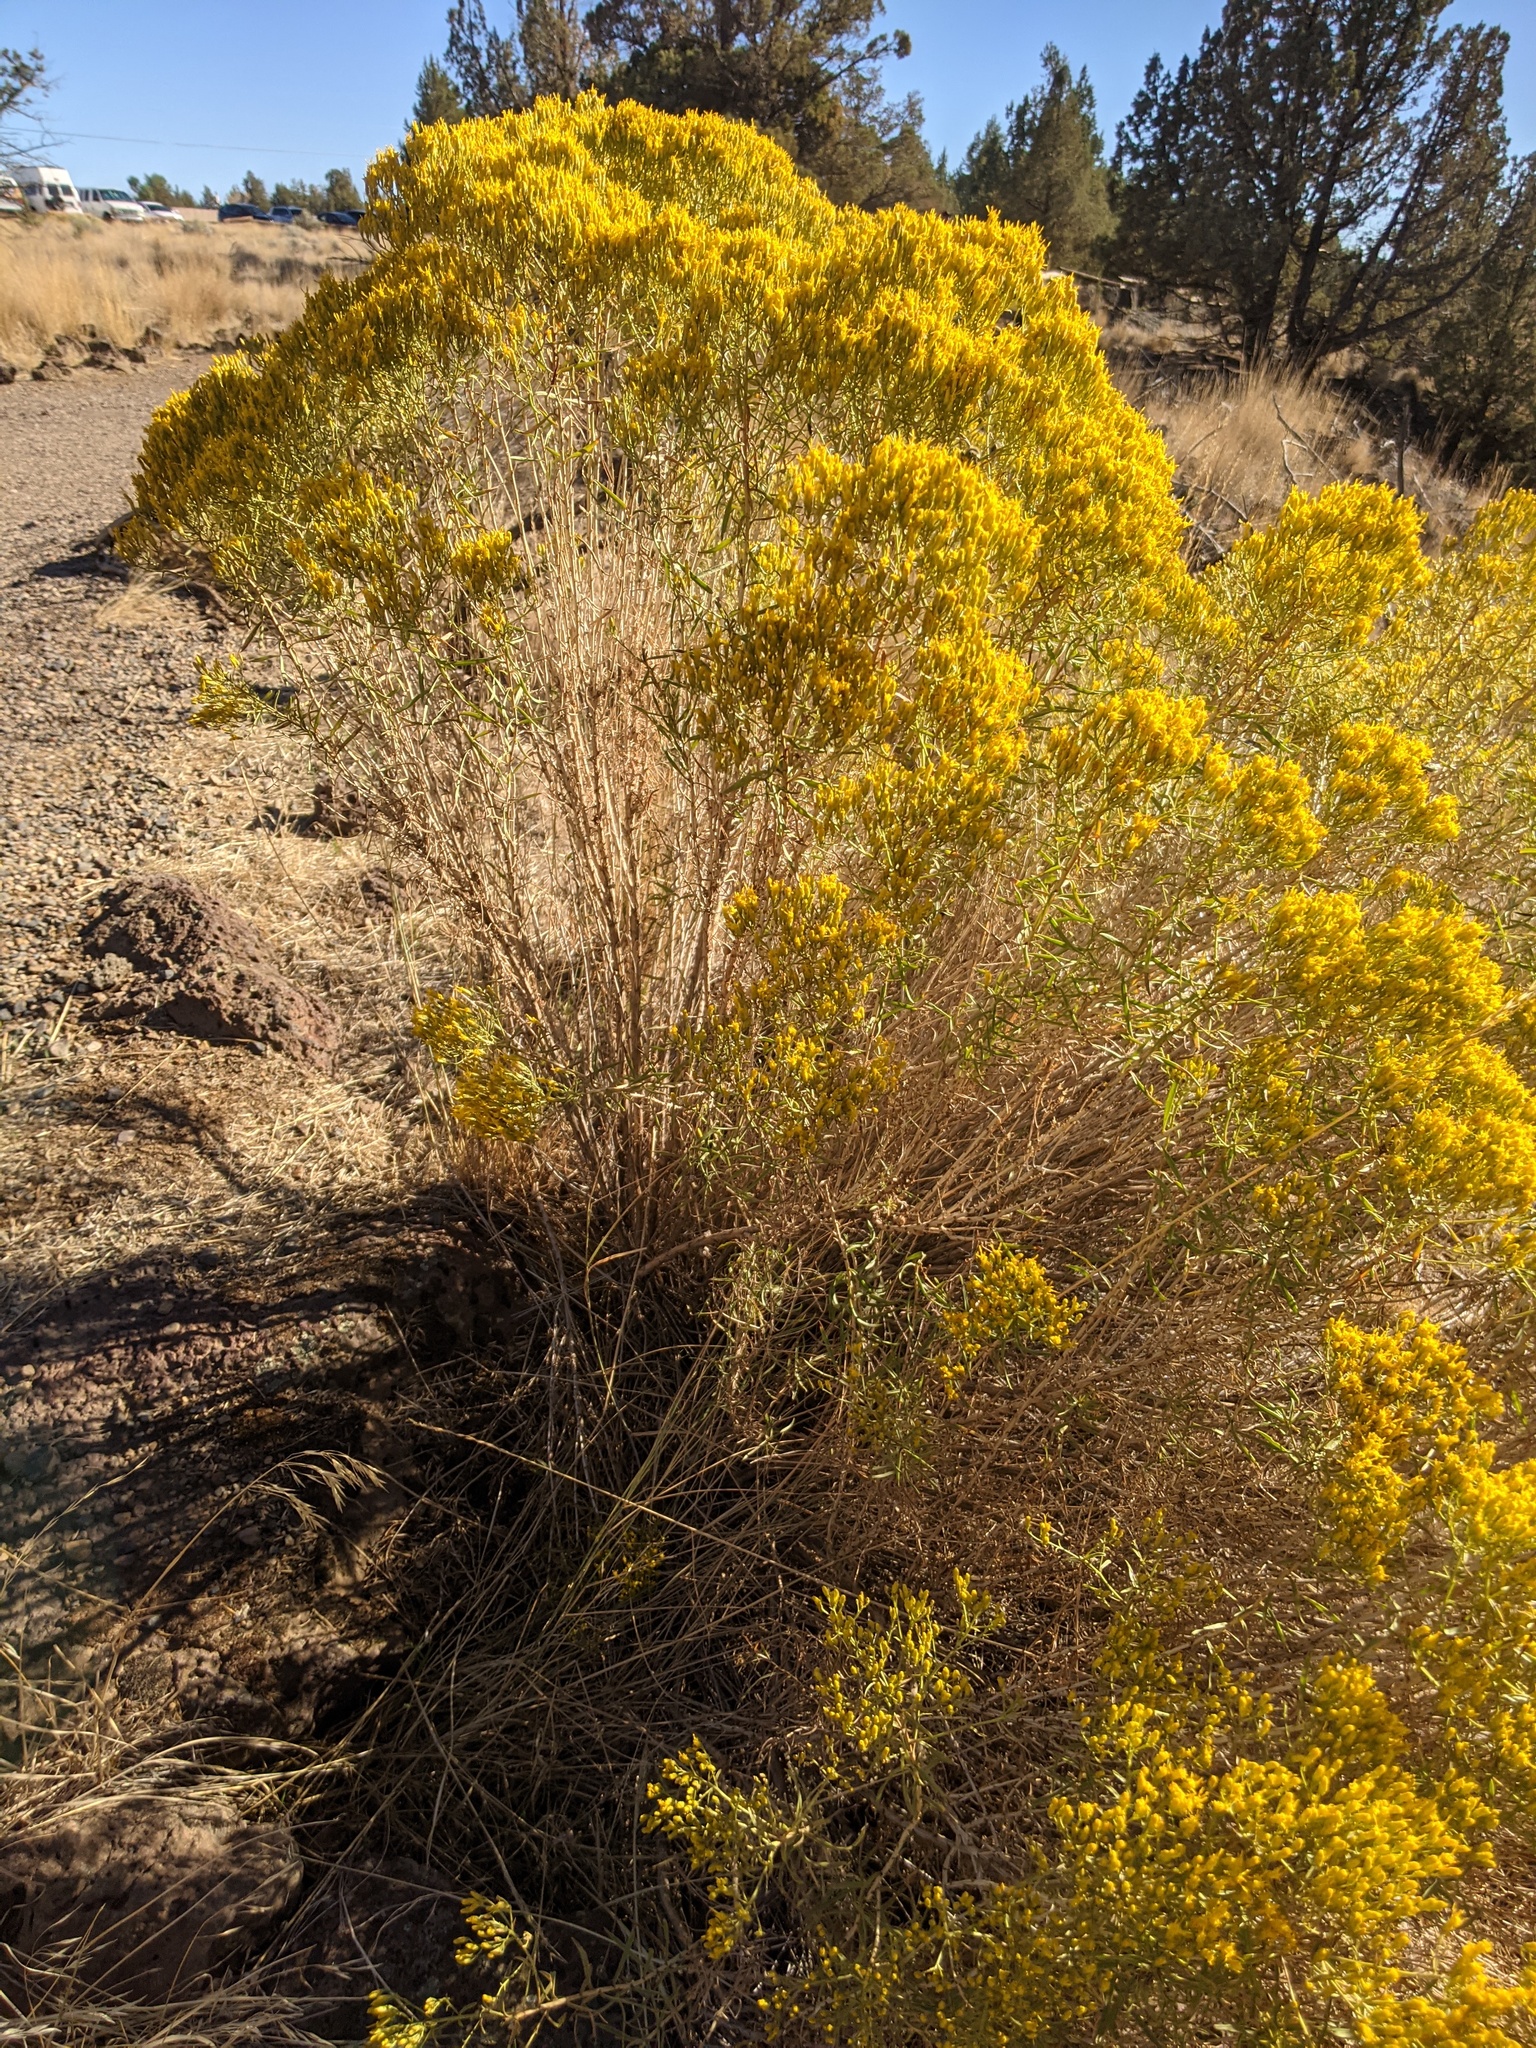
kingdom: Plantae
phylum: Tracheophyta
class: Magnoliopsida
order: Asterales
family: Asteraceae
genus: Chrysothamnus
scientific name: Chrysothamnus viscidiflorus
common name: Yellow rabbitbrush
